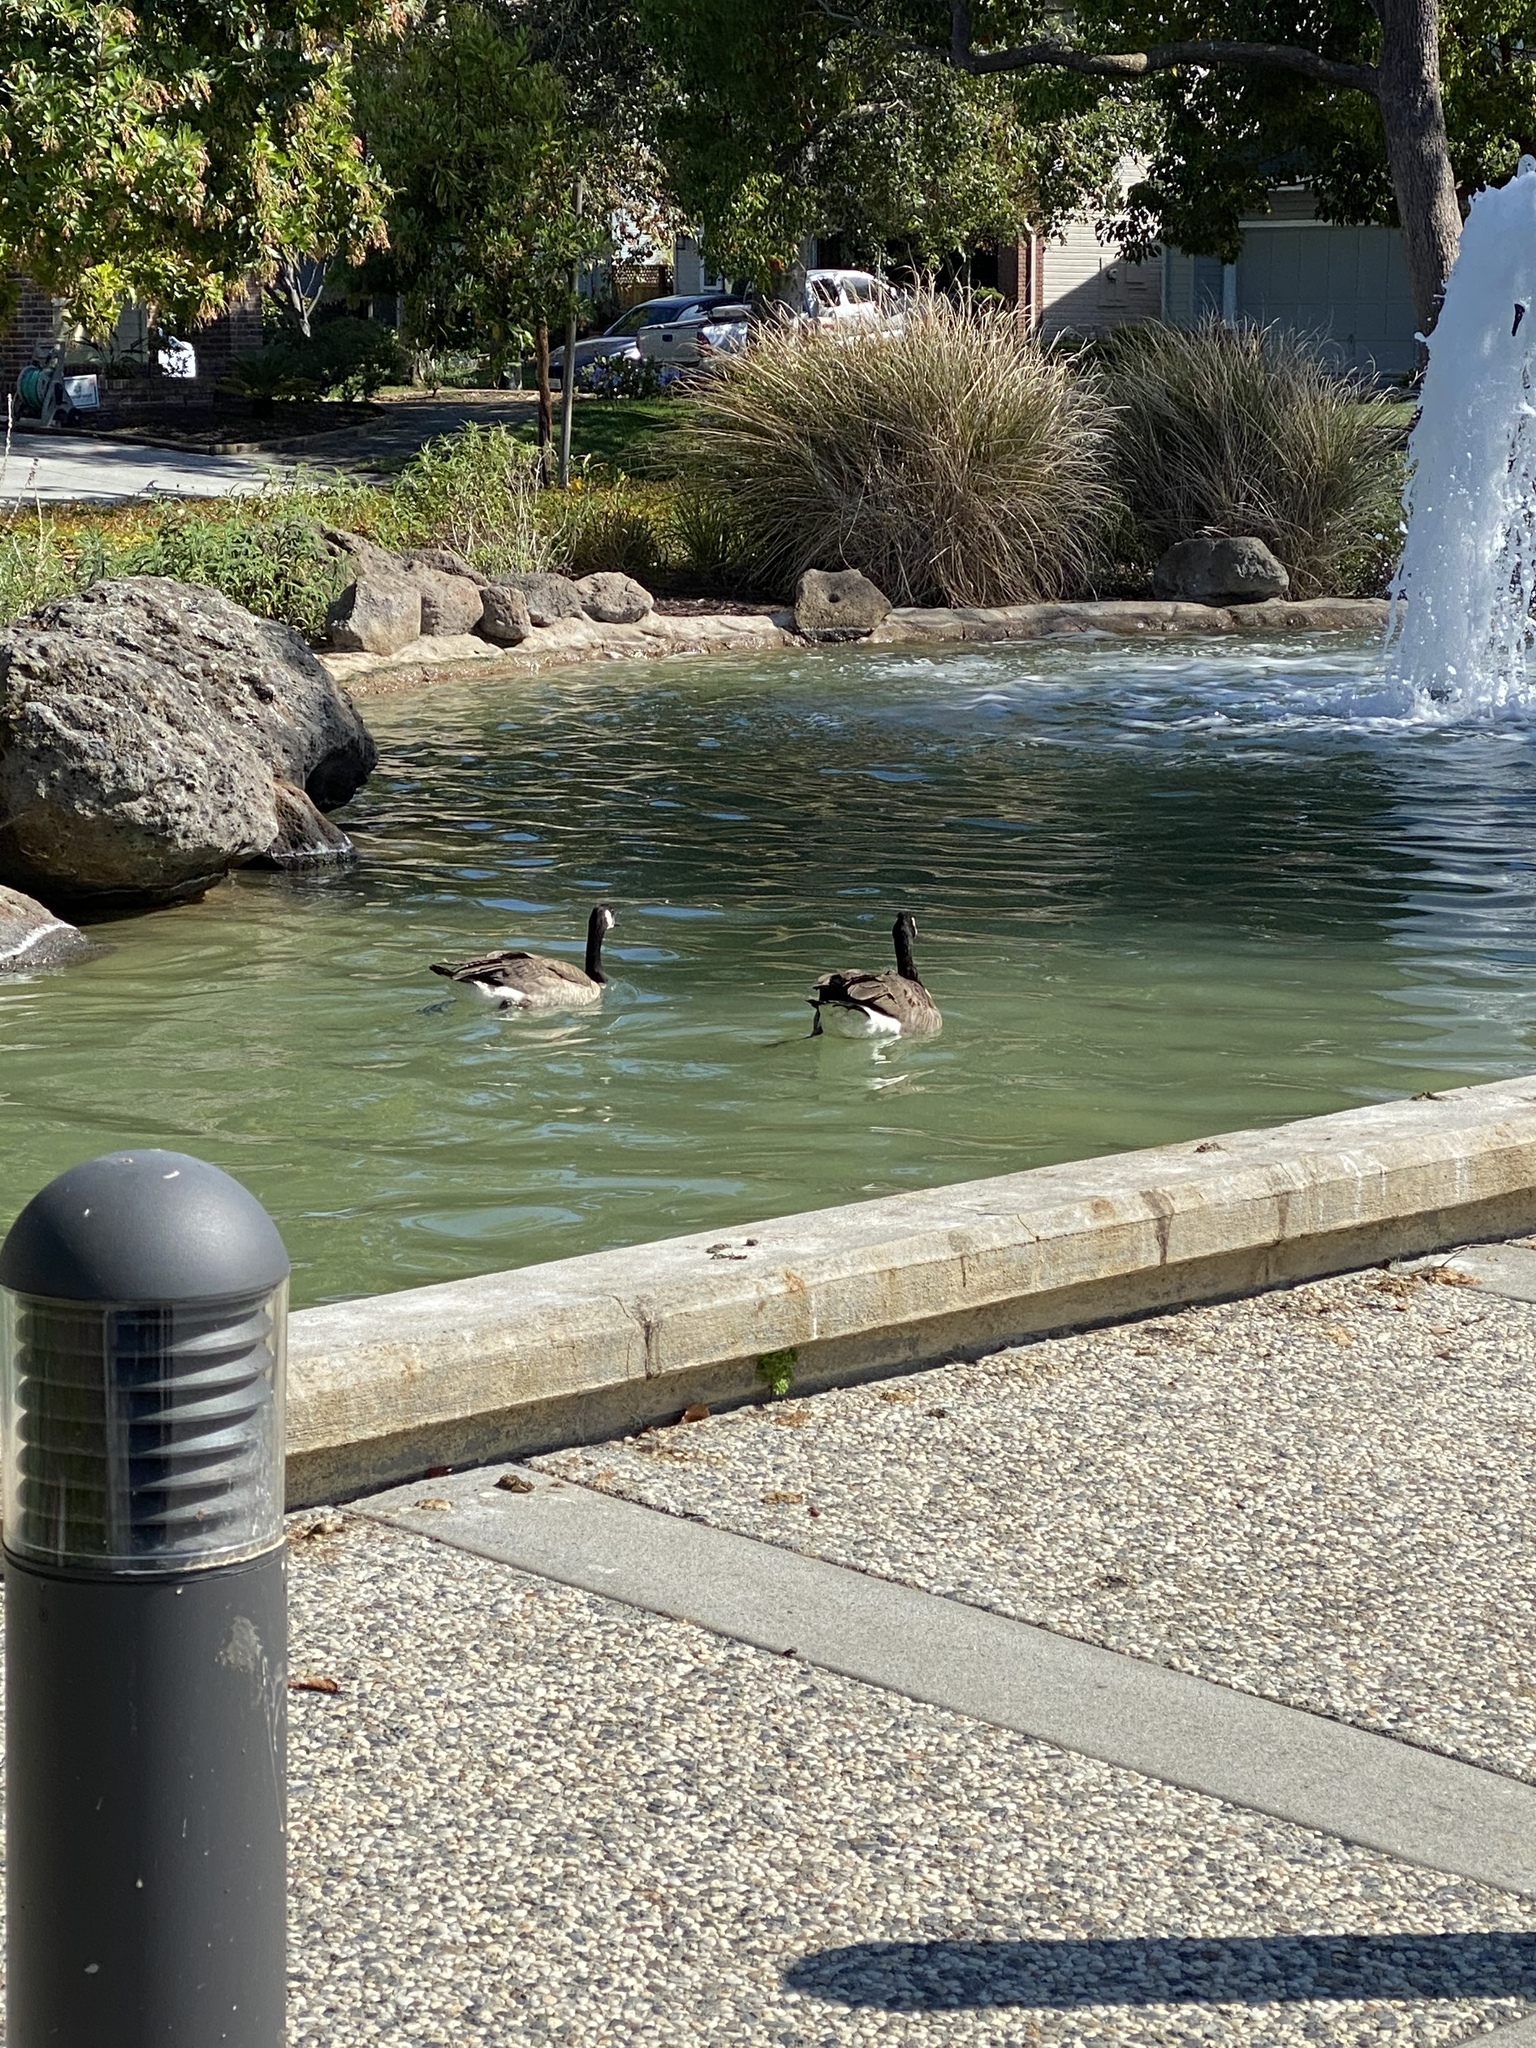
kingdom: Animalia
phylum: Chordata
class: Aves
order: Anseriformes
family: Anatidae
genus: Branta
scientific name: Branta canadensis
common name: Canada goose
